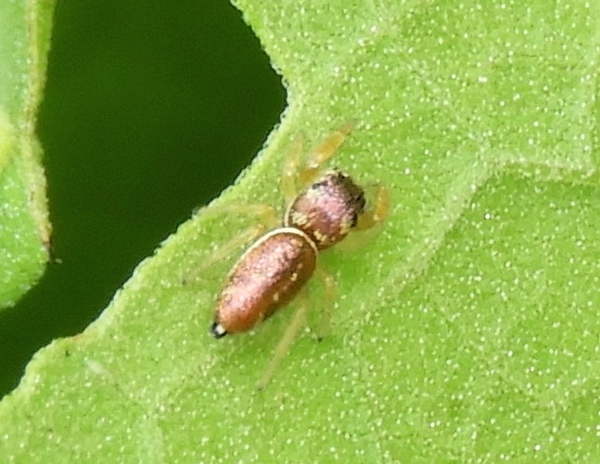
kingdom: Animalia
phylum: Arthropoda
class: Arachnida
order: Araneae
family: Salticidae
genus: Sassacus
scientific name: Sassacus
